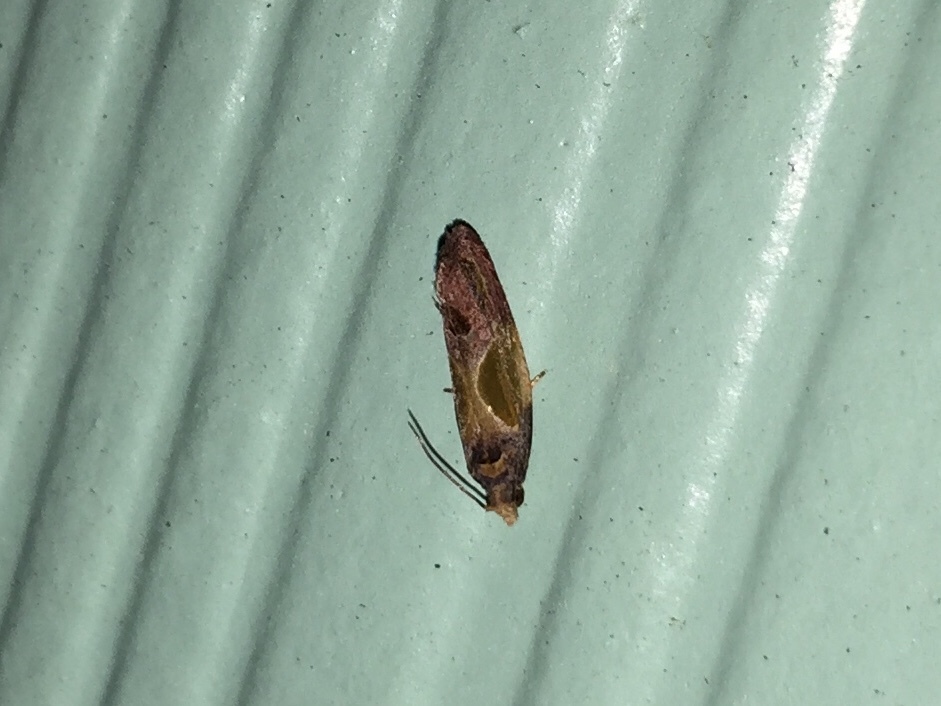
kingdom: Animalia
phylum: Arthropoda
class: Insecta
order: Lepidoptera
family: Tortricidae
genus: Eumarozia
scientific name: Eumarozia malachitana
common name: Sculptured moth
